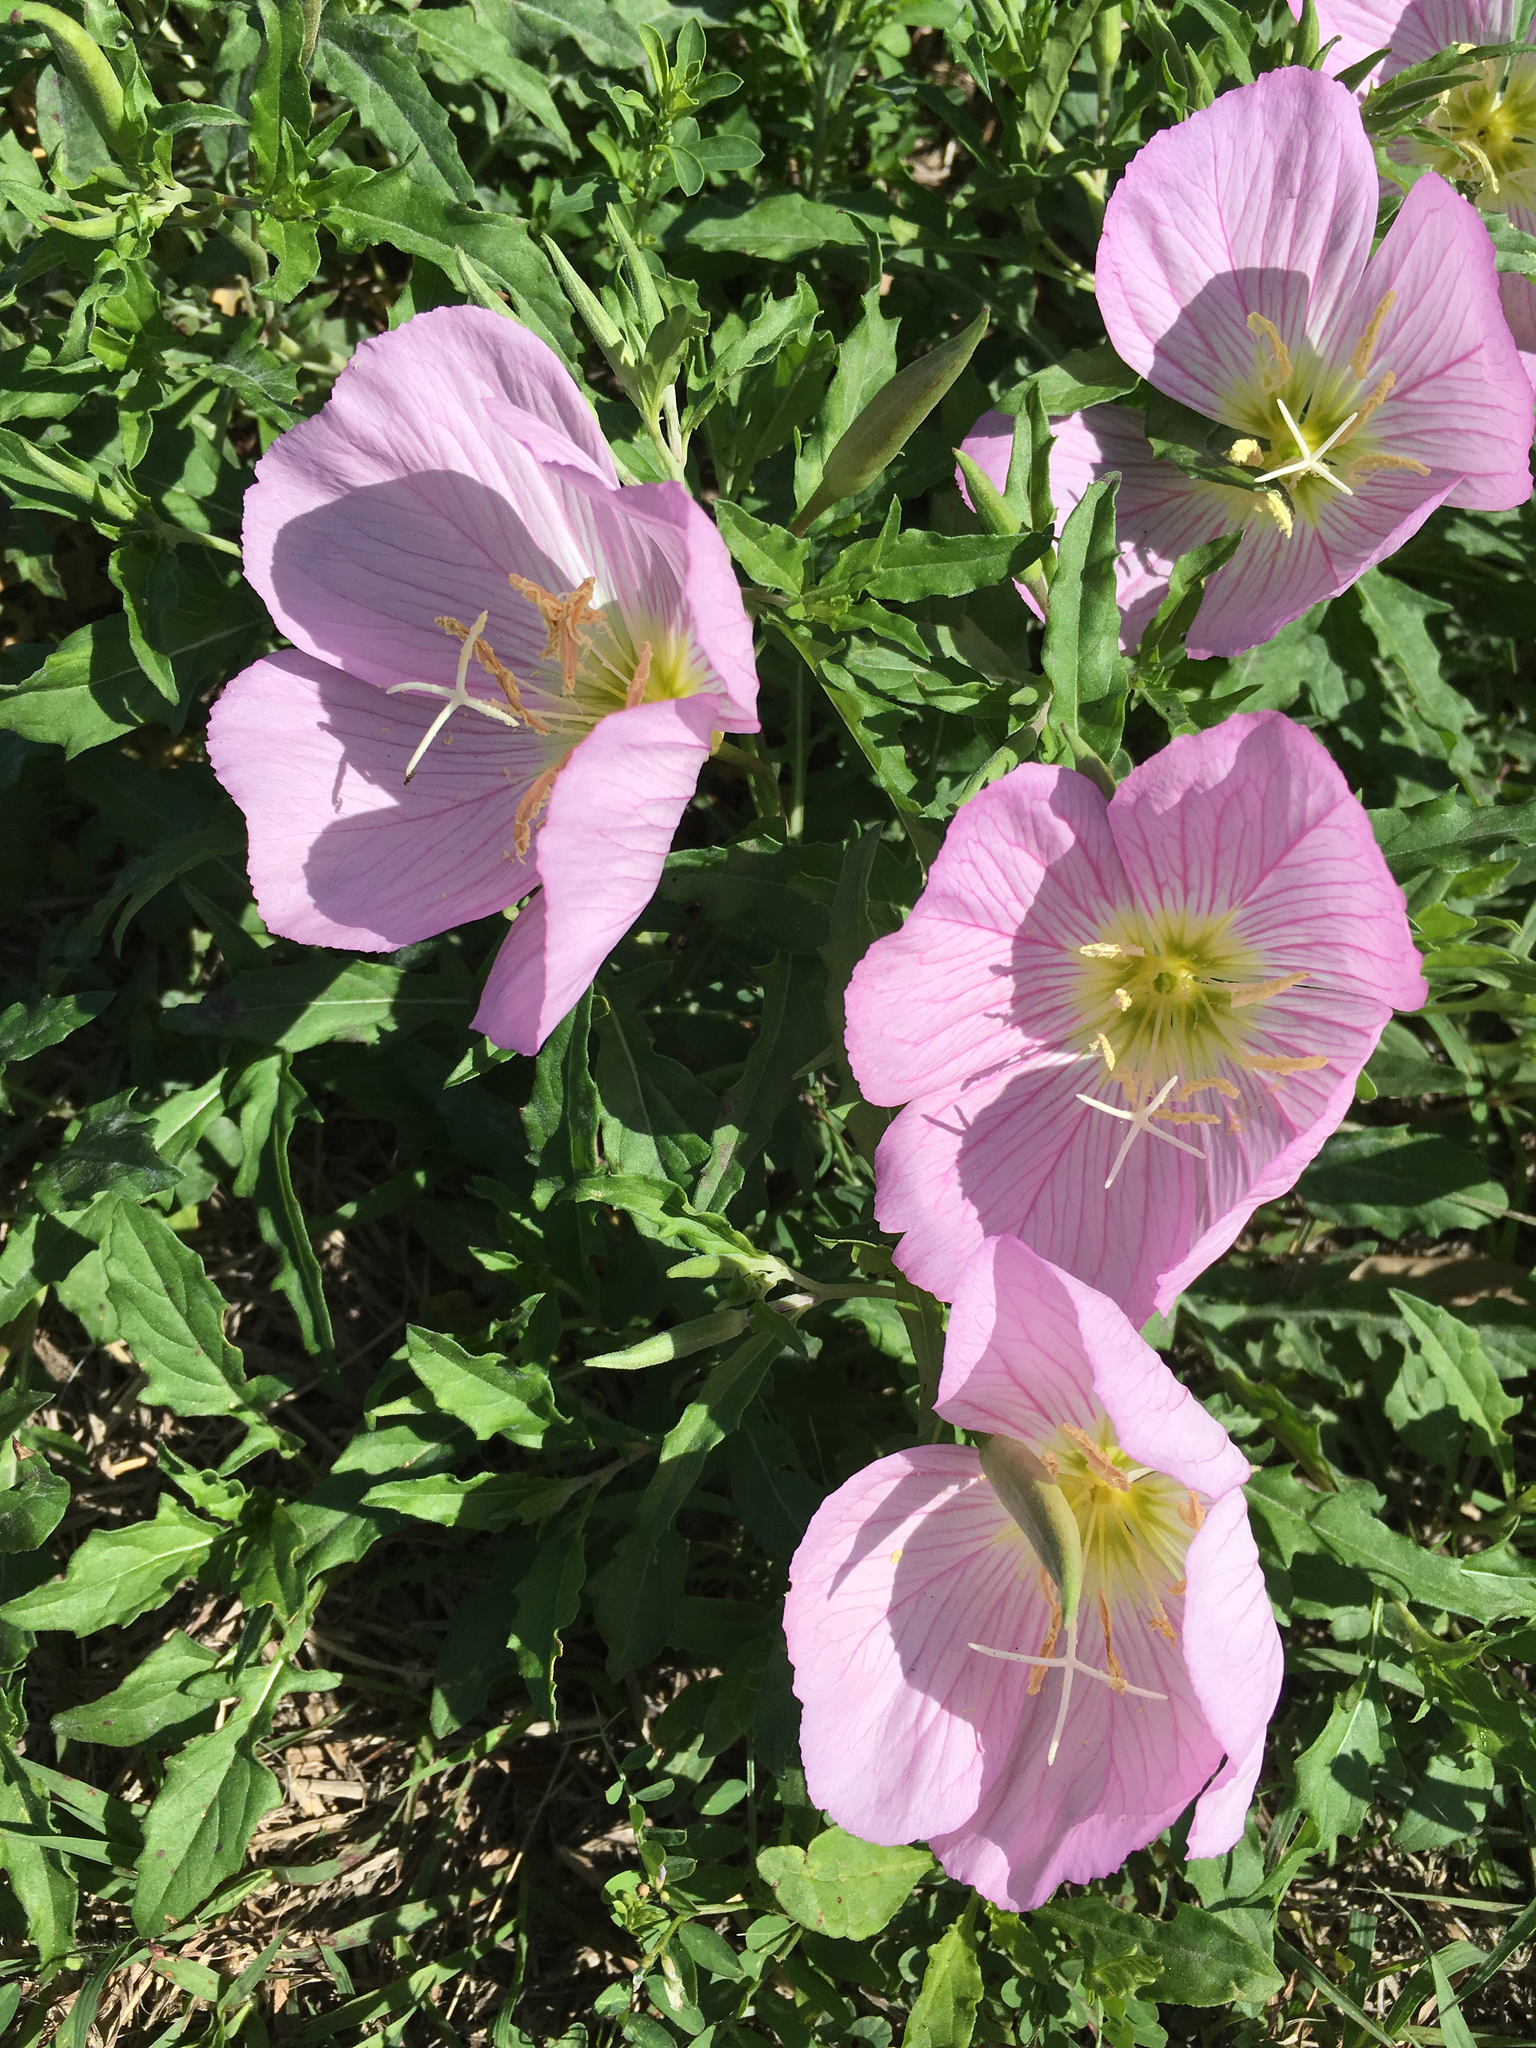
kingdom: Plantae
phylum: Tracheophyta
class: Magnoliopsida
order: Myrtales
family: Onagraceae
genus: Oenothera
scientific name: Oenothera speciosa
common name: White evening-primrose
